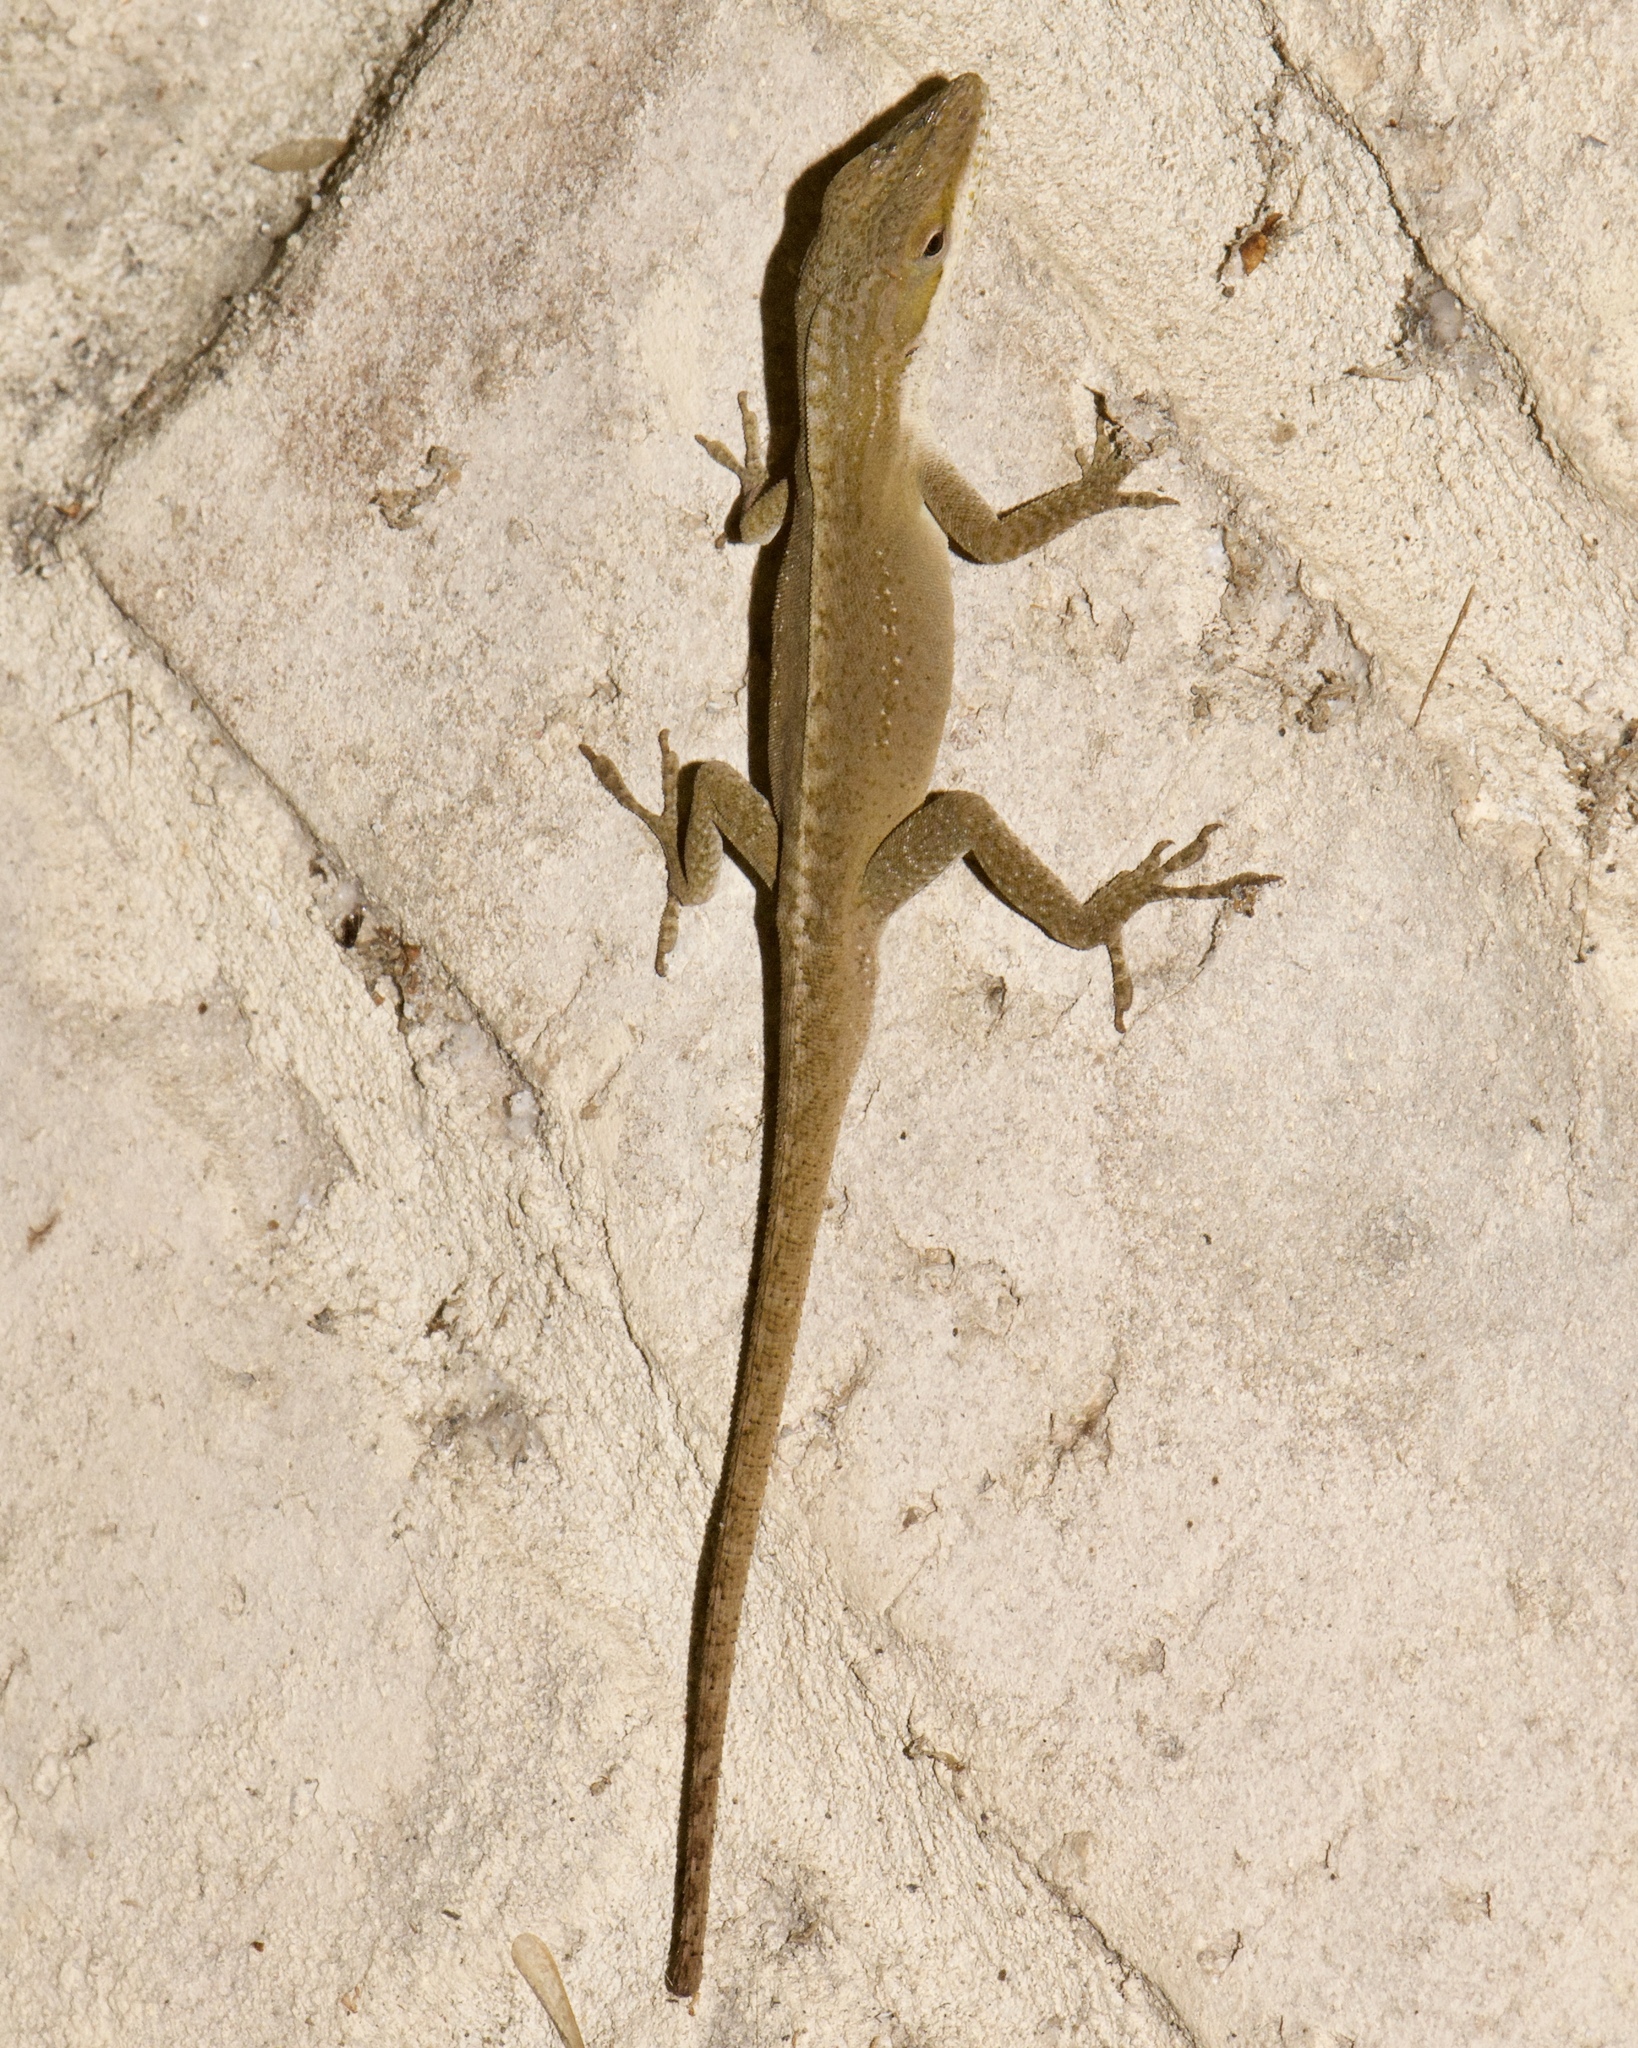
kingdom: Animalia
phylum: Chordata
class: Squamata
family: Dactyloidae
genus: Anolis
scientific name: Anolis carolinensis
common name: Green anole
